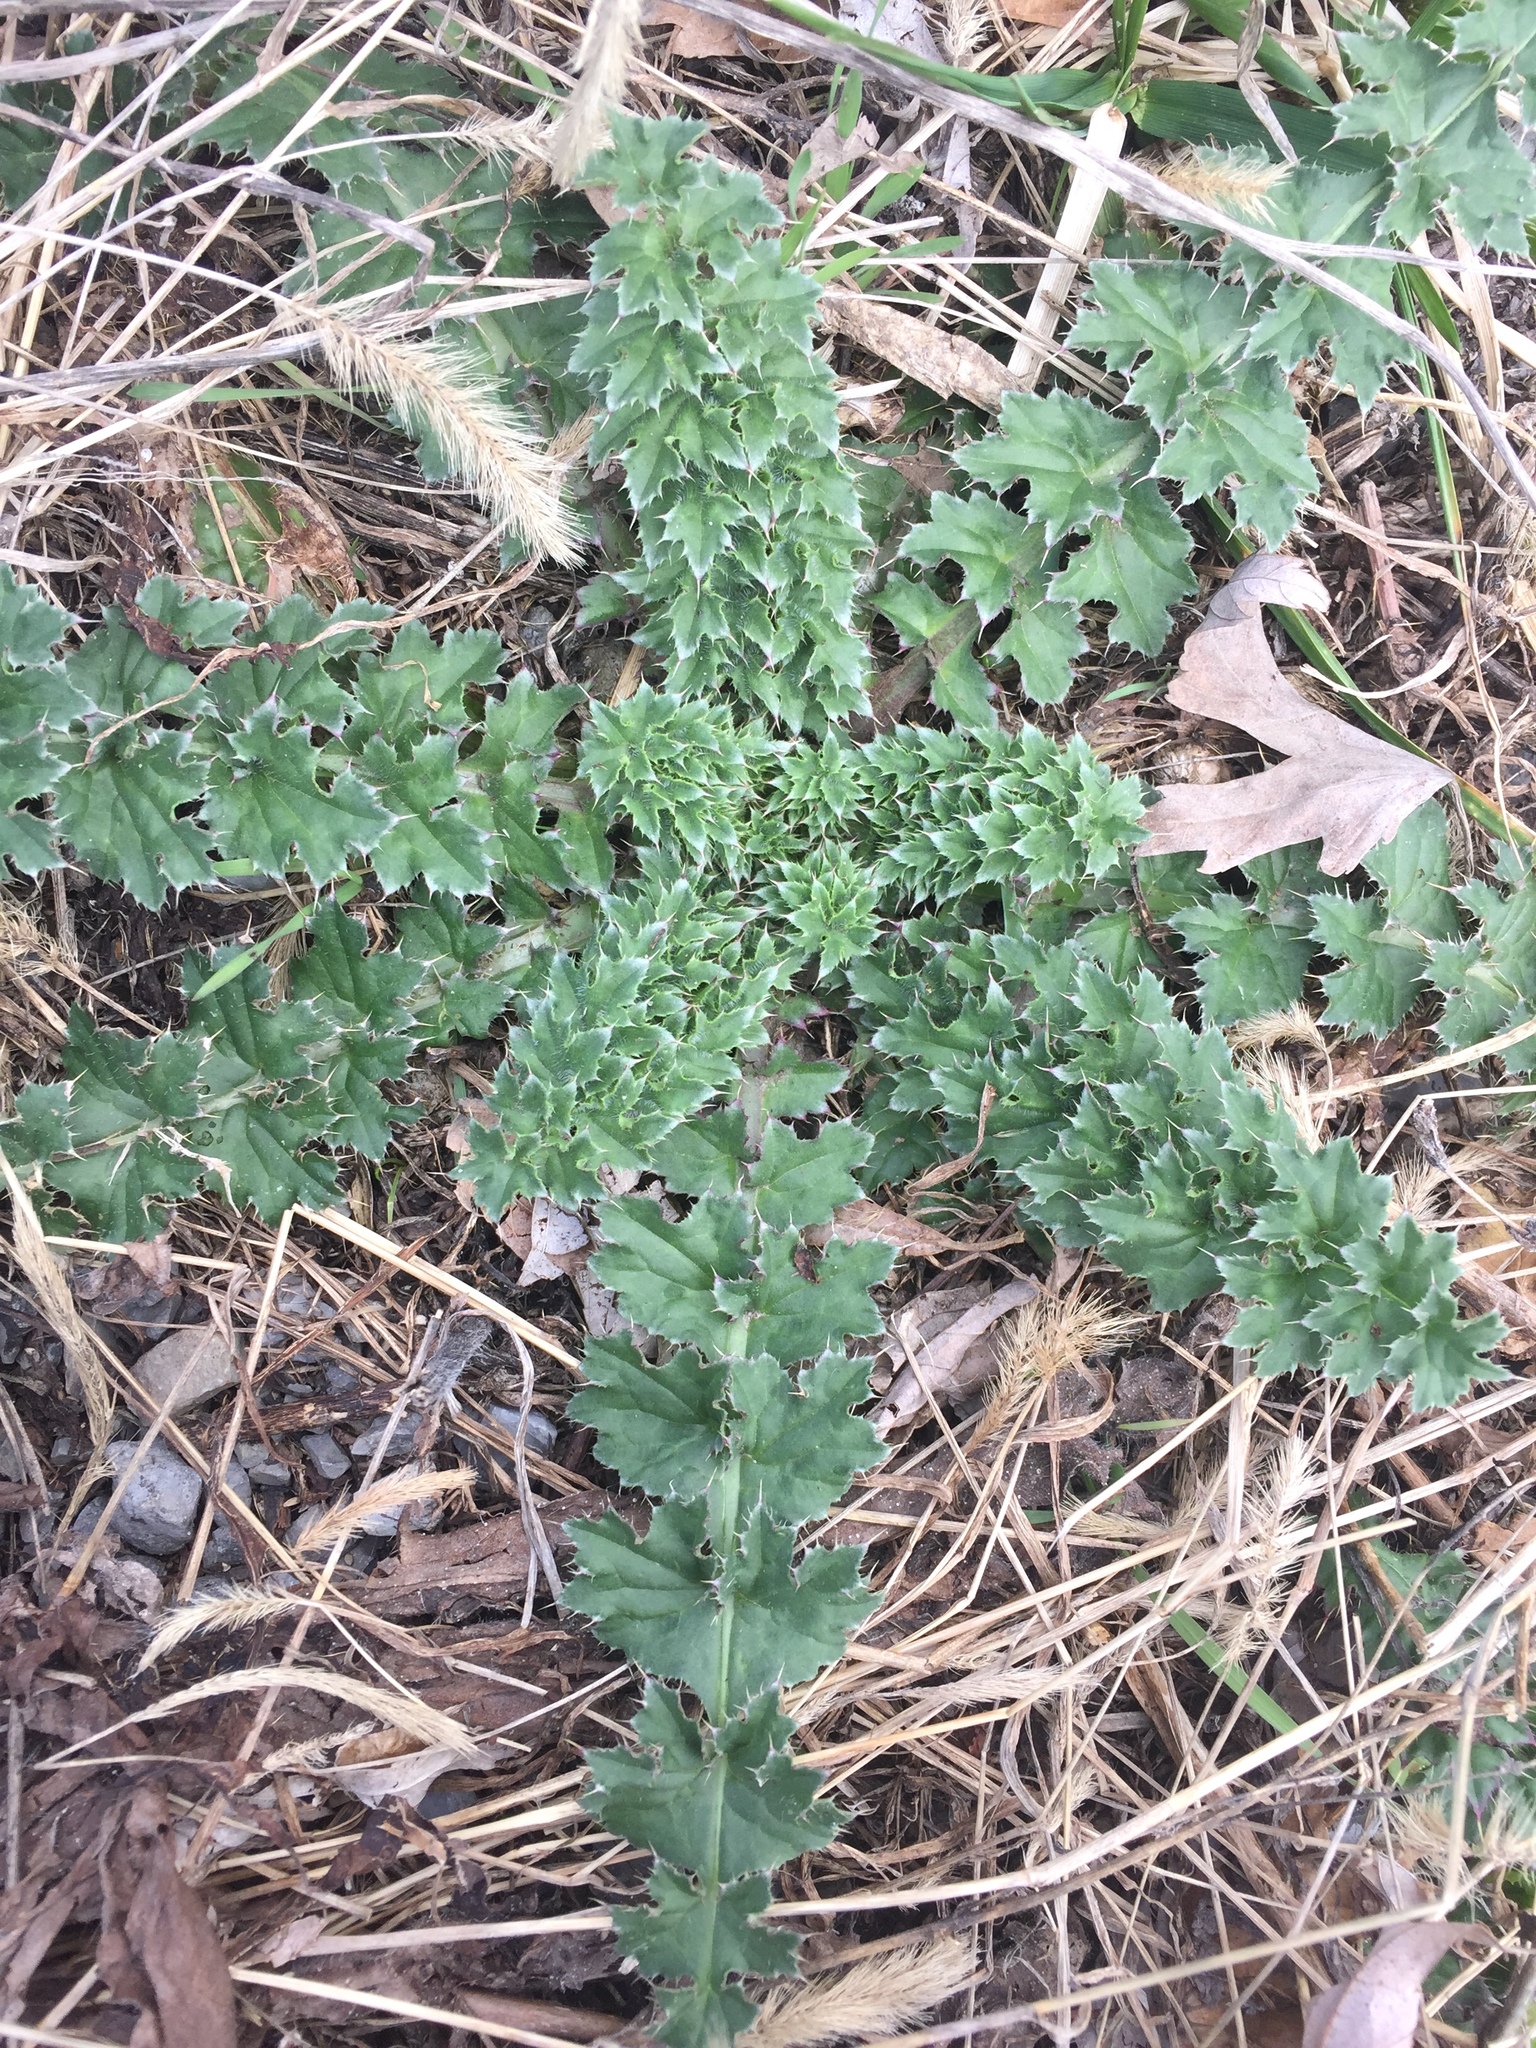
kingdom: Plantae
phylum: Tracheophyta
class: Magnoliopsida
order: Asterales
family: Asteraceae
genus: Carduus
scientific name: Carduus nutans
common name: Musk thistle
